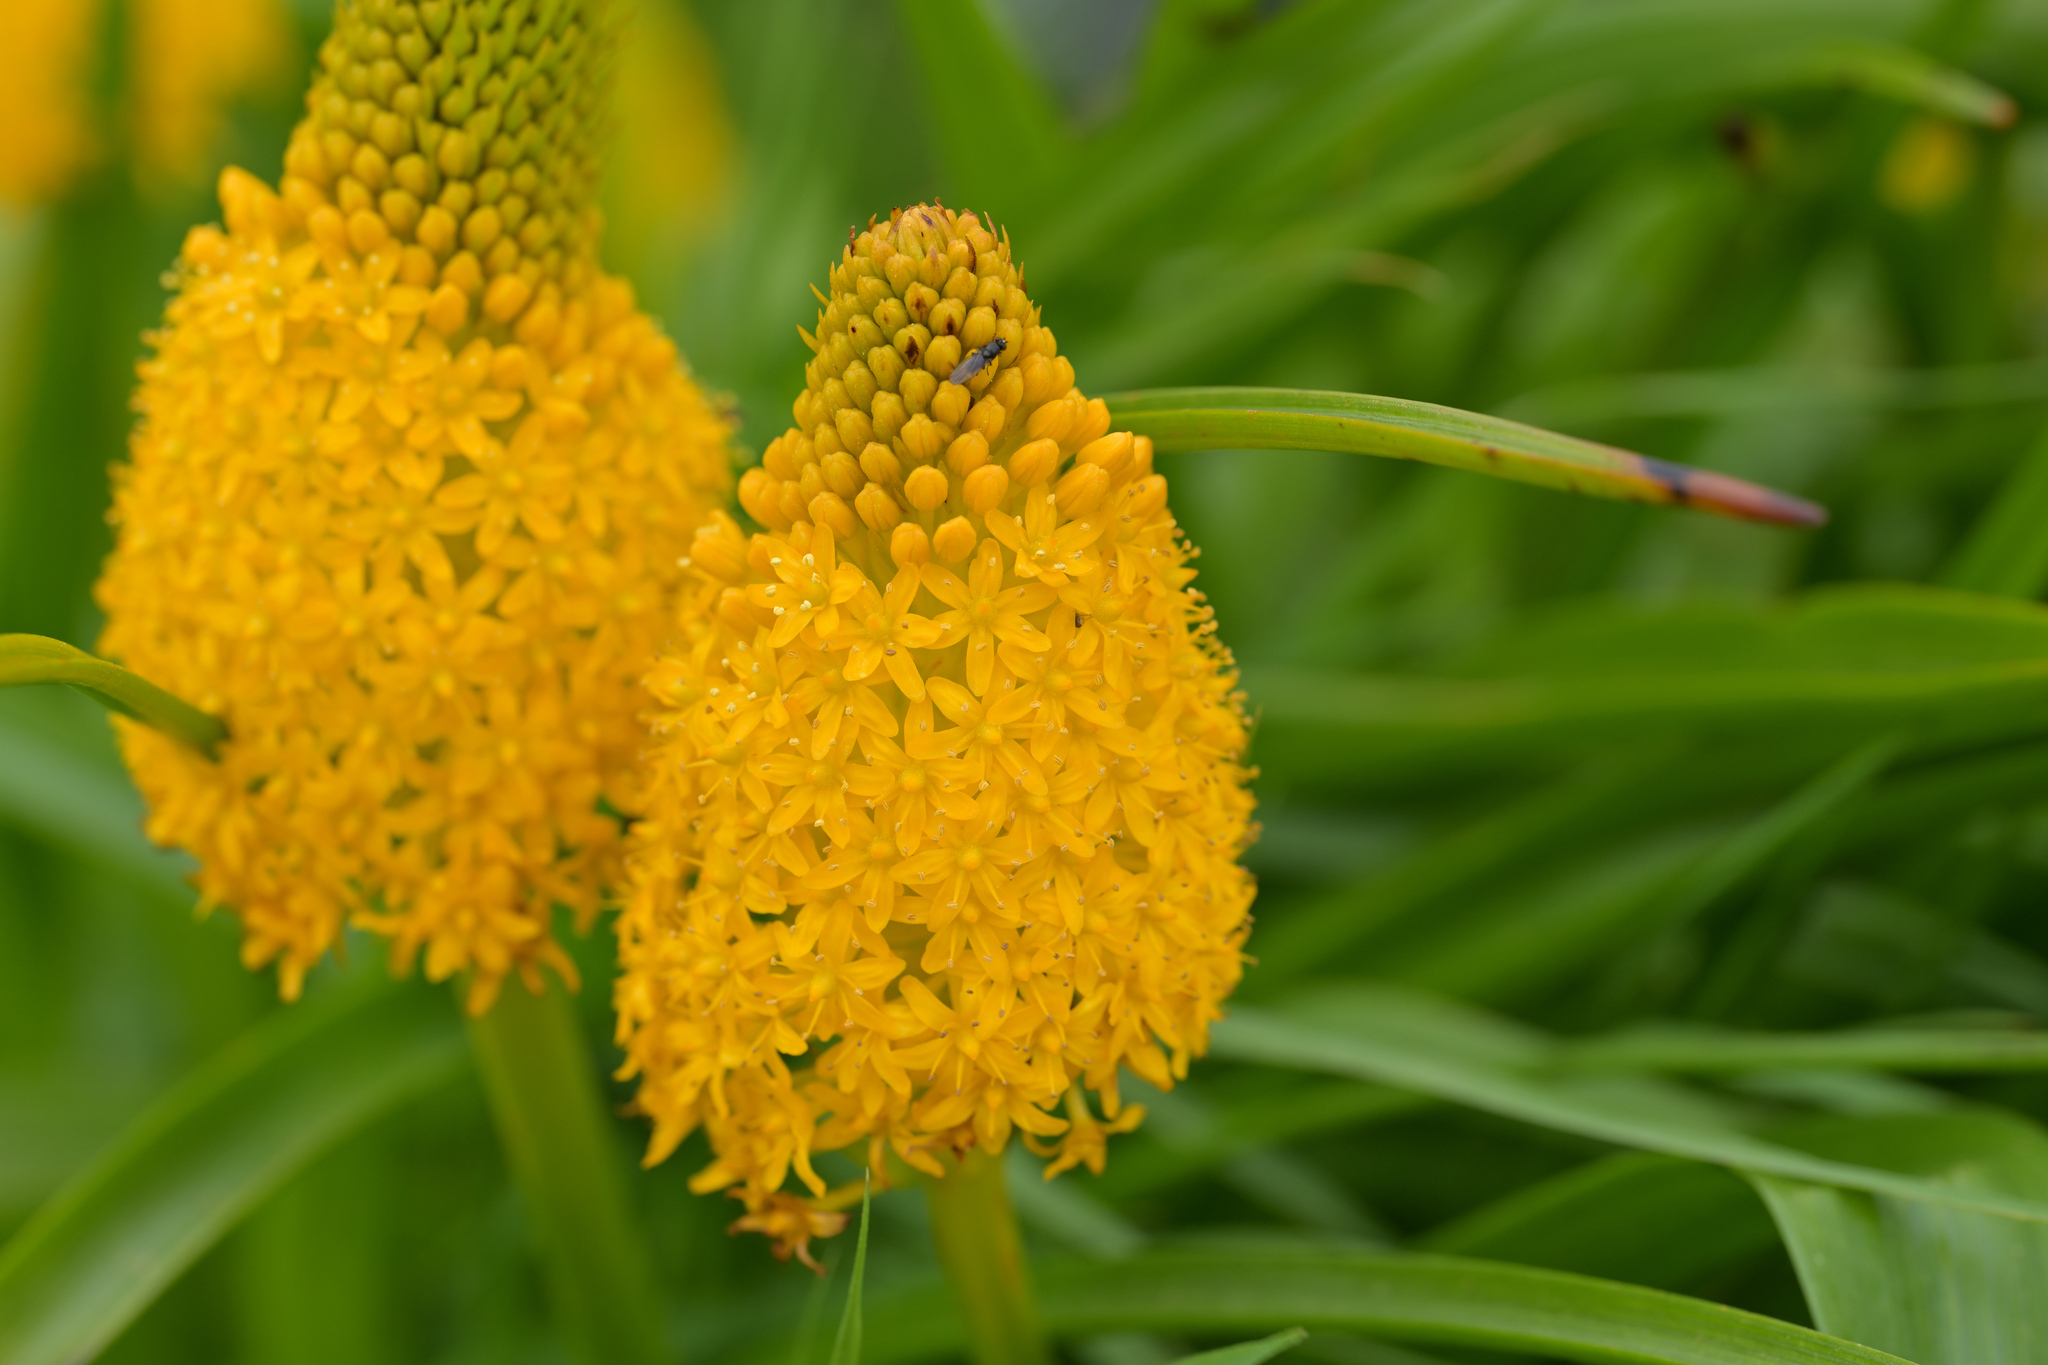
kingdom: Plantae
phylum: Tracheophyta
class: Liliopsida
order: Asparagales
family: Asphodelaceae
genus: Bulbinella
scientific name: Bulbinella rossii
